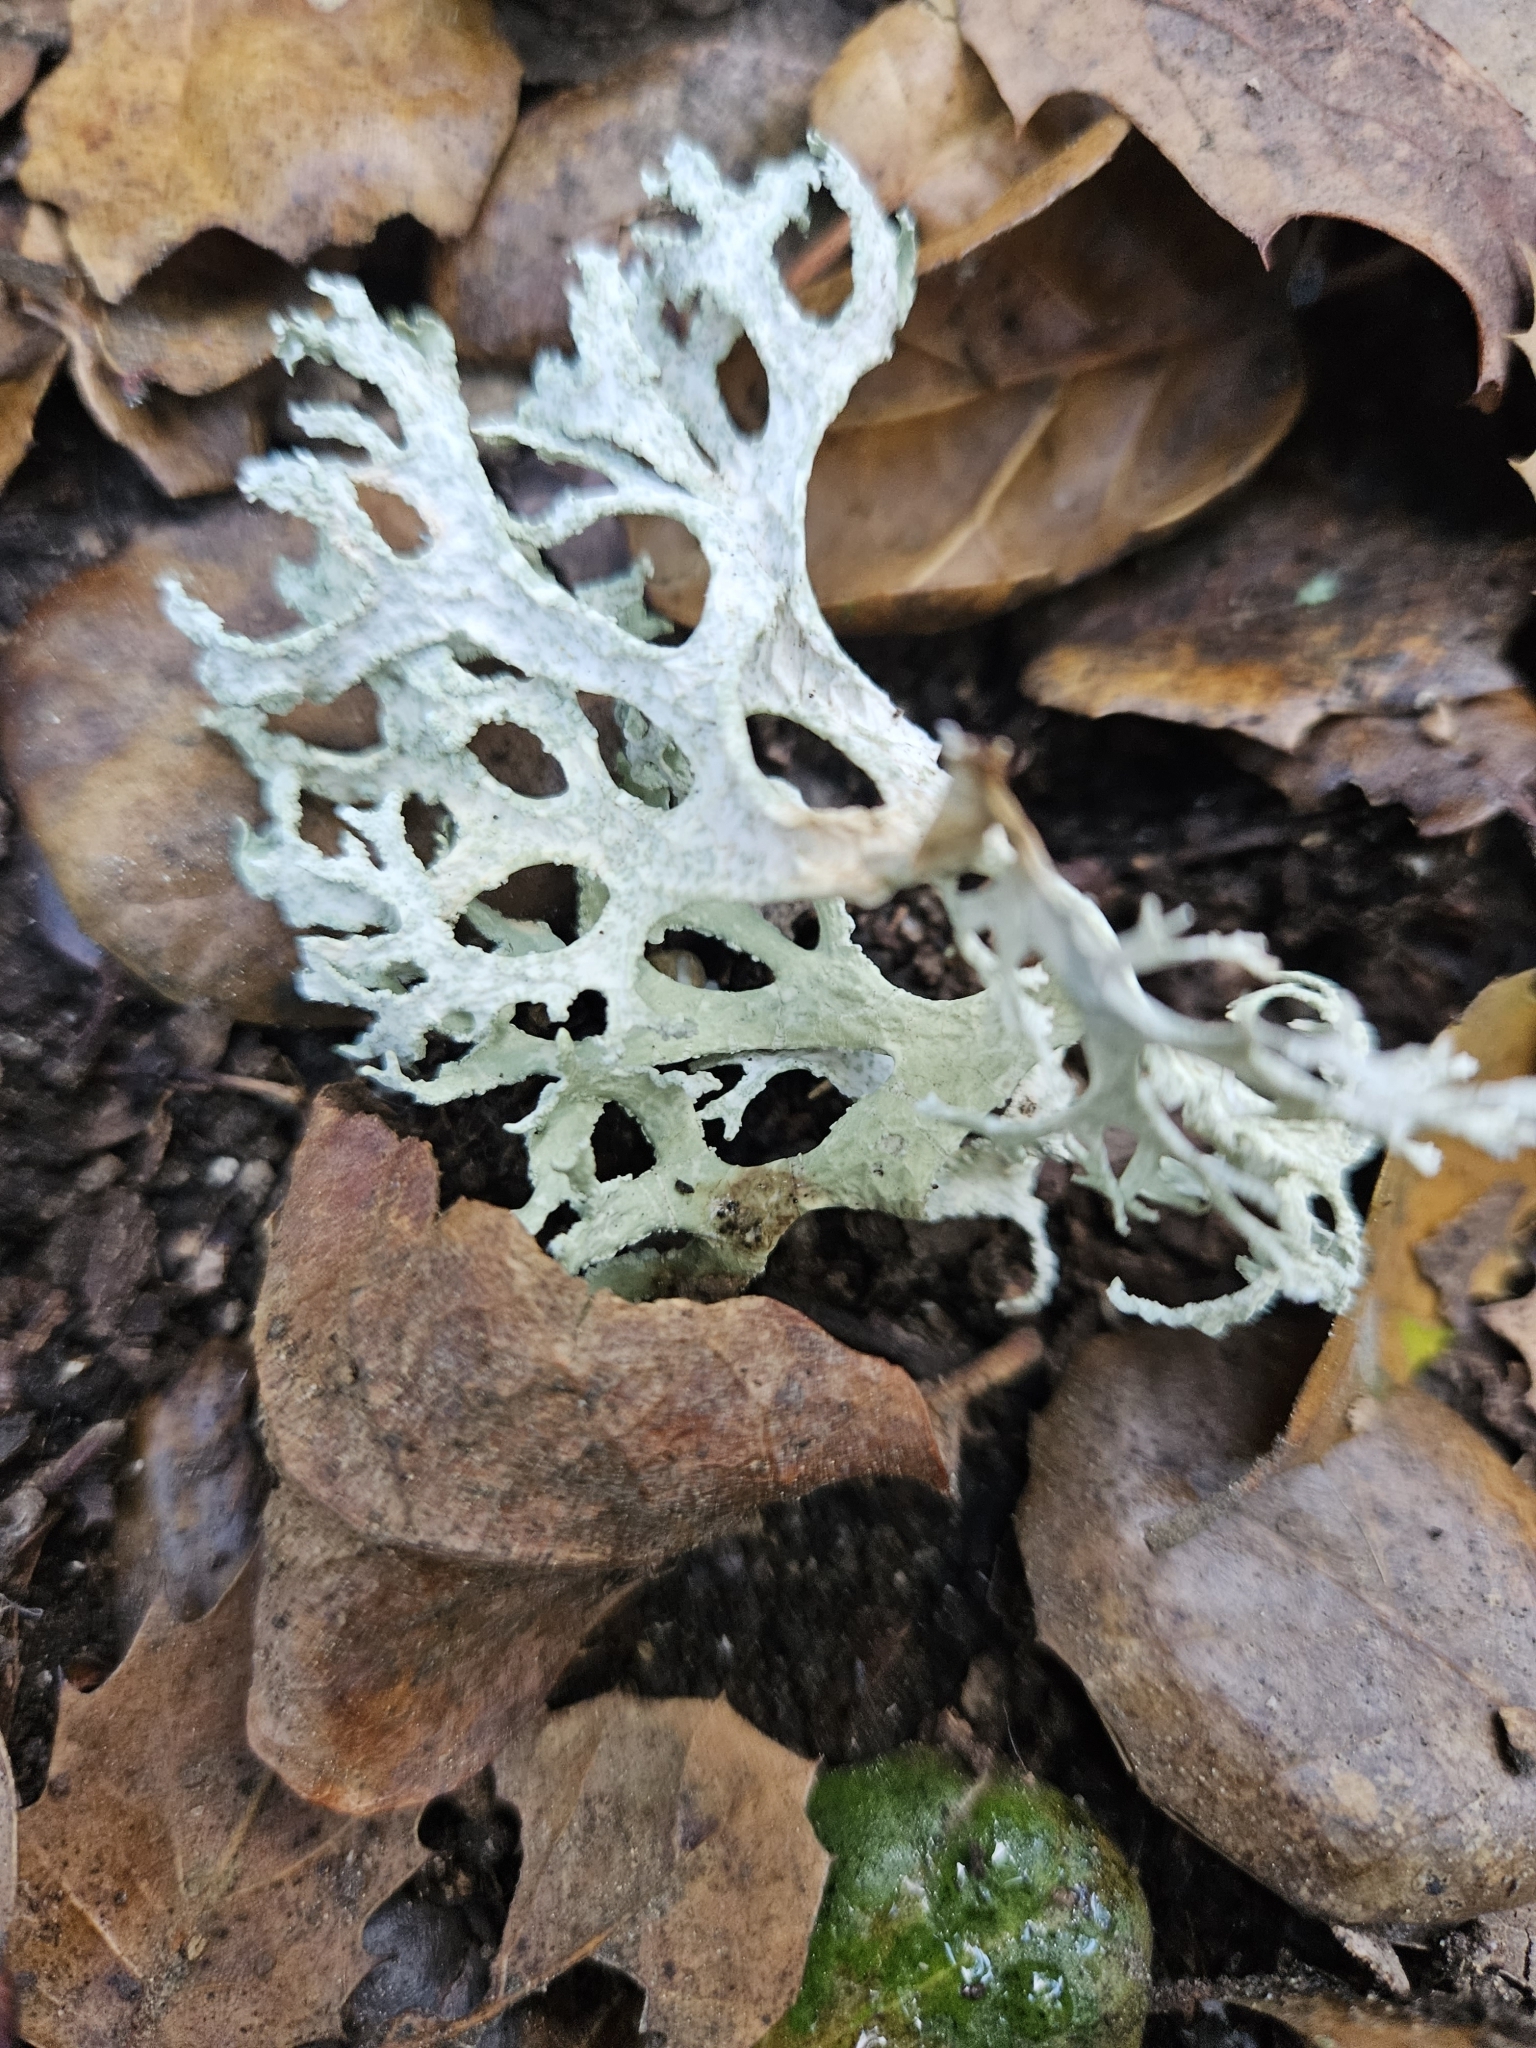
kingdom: Fungi
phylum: Ascomycota
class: Lecanoromycetes
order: Lecanorales
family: Parmeliaceae
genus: Evernia
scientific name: Evernia prunastri
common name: Oak moss
